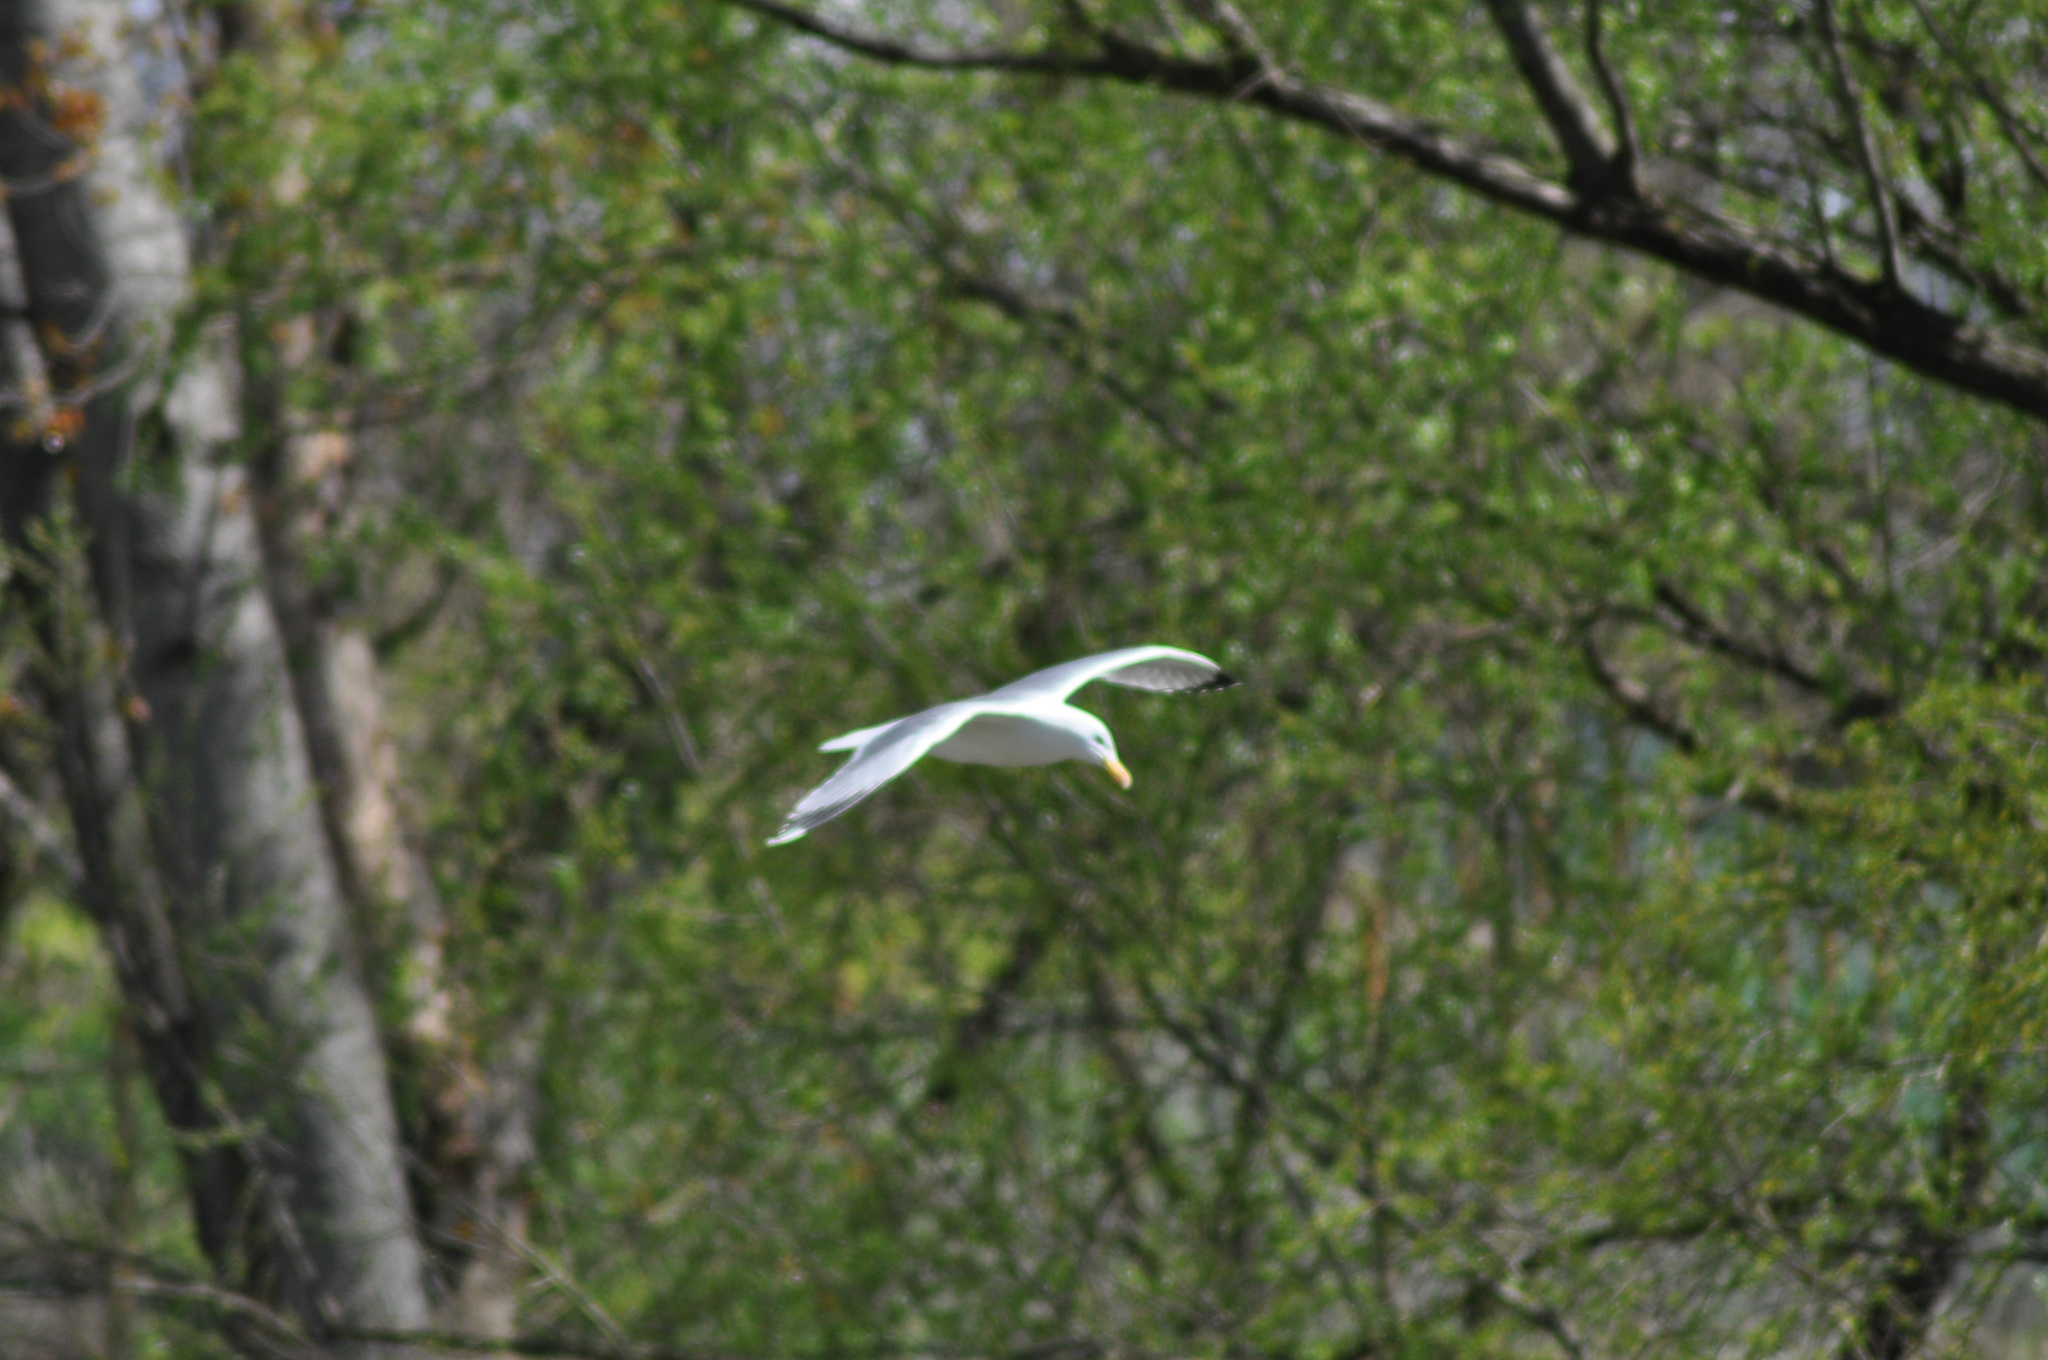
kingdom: Animalia
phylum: Chordata
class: Aves
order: Charadriiformes
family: Laridae
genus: Larus
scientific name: Larus michahellis
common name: Yellow-legged gull
